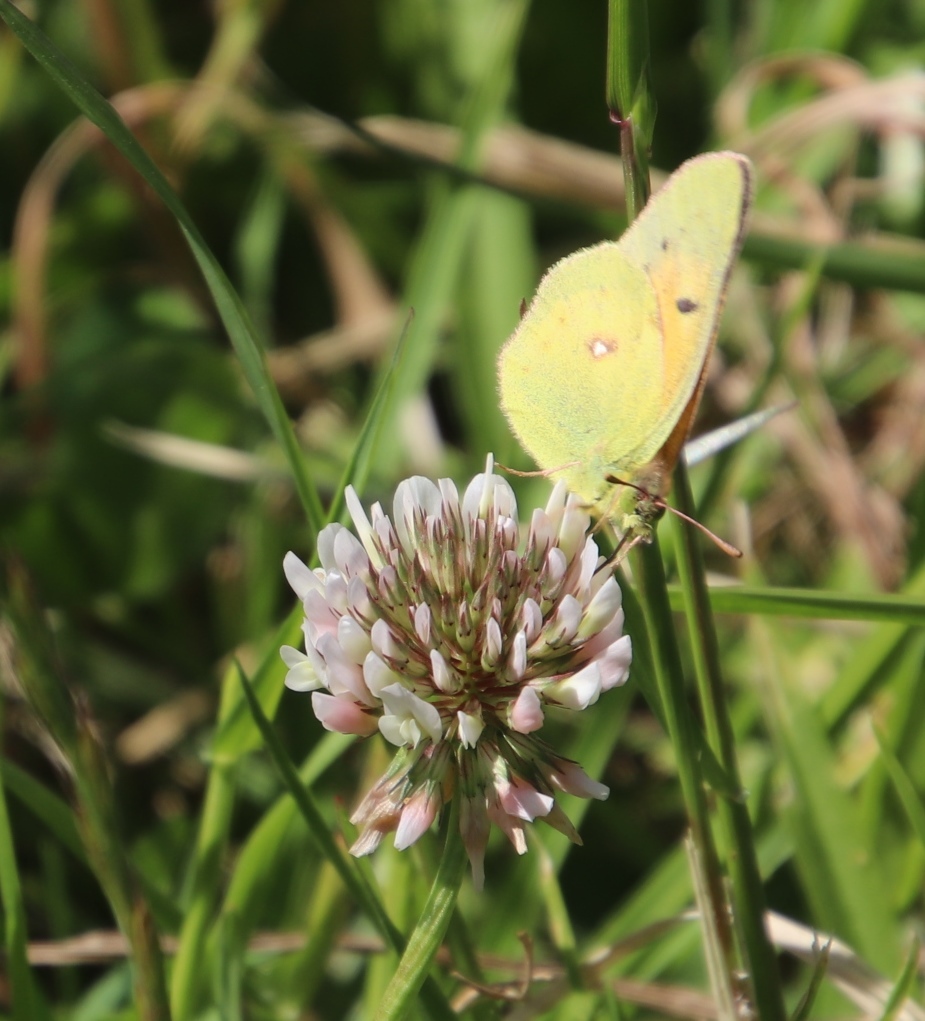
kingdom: Animalia
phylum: Arthropoda
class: Insecta
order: Lepidoptera
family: Pieridae
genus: Colias
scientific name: Colias electo
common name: African clouded yellow
